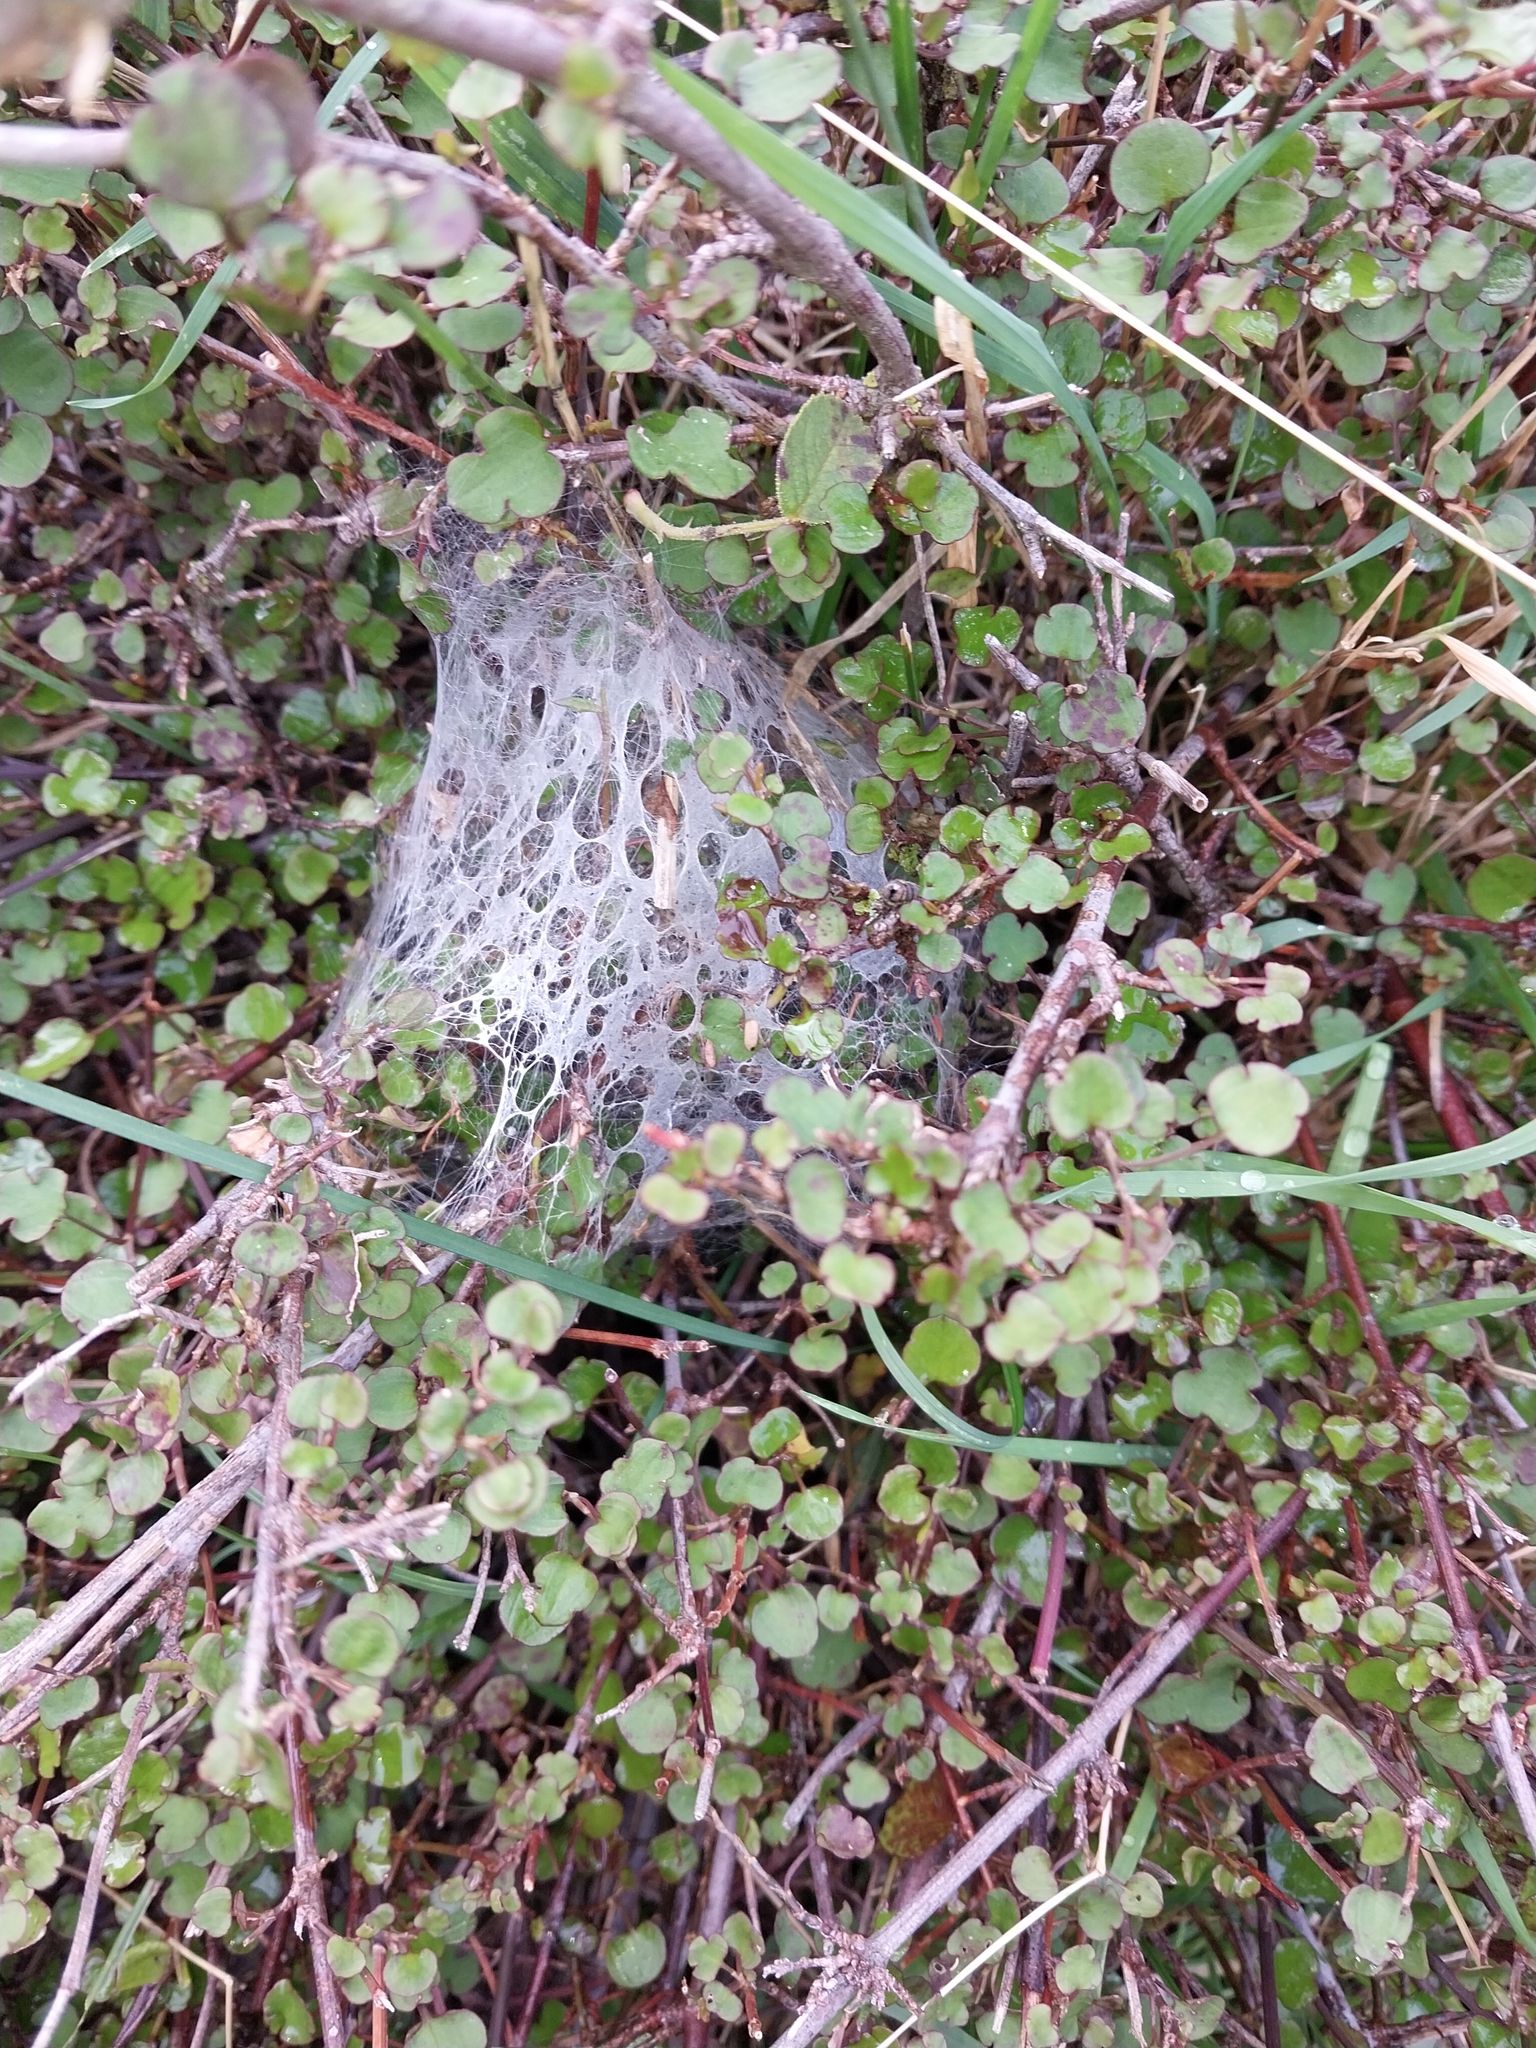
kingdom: Animalia
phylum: Arthropoda
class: Arachnida
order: Araneae
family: Pisauridae
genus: Dolomedes
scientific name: Dolomedes minor
